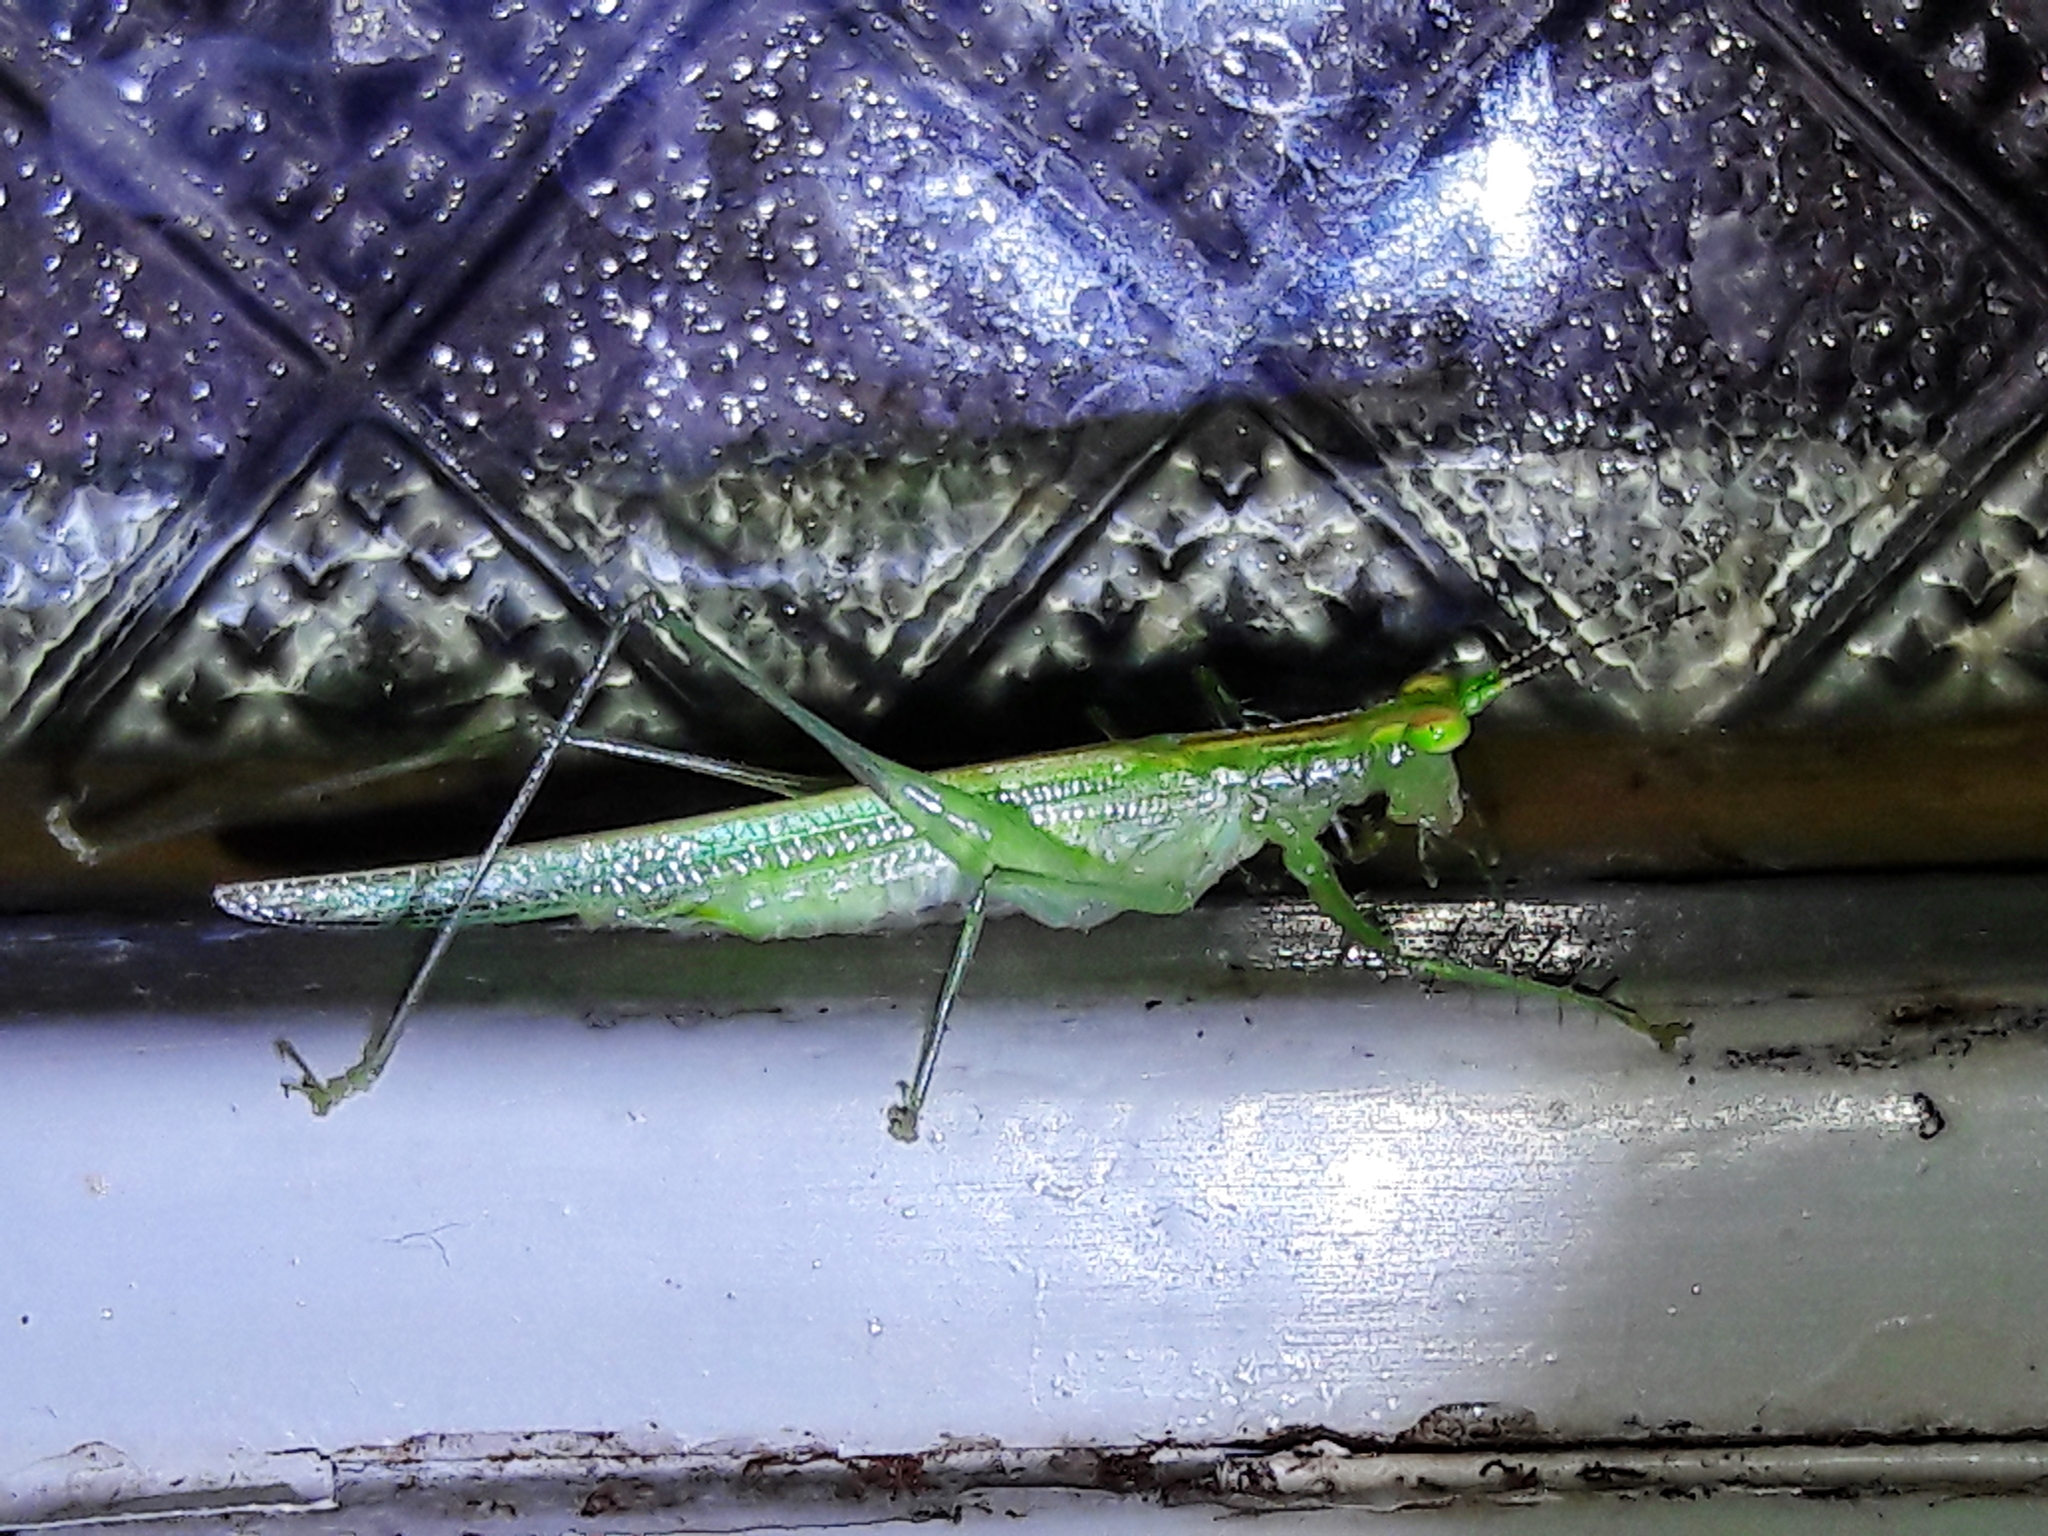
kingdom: Animalia
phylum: Arthropoda
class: Insecta
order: Orthoptera
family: Tettigoniidae
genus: Phlugis
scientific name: Phlugis ocraceovittata
